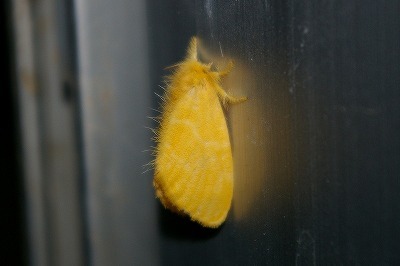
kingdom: Animalia
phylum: Arthropoda
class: Insecta
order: Lepidoptera
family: Erebidae
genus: Euproctis
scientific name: Euproctis taiwana
